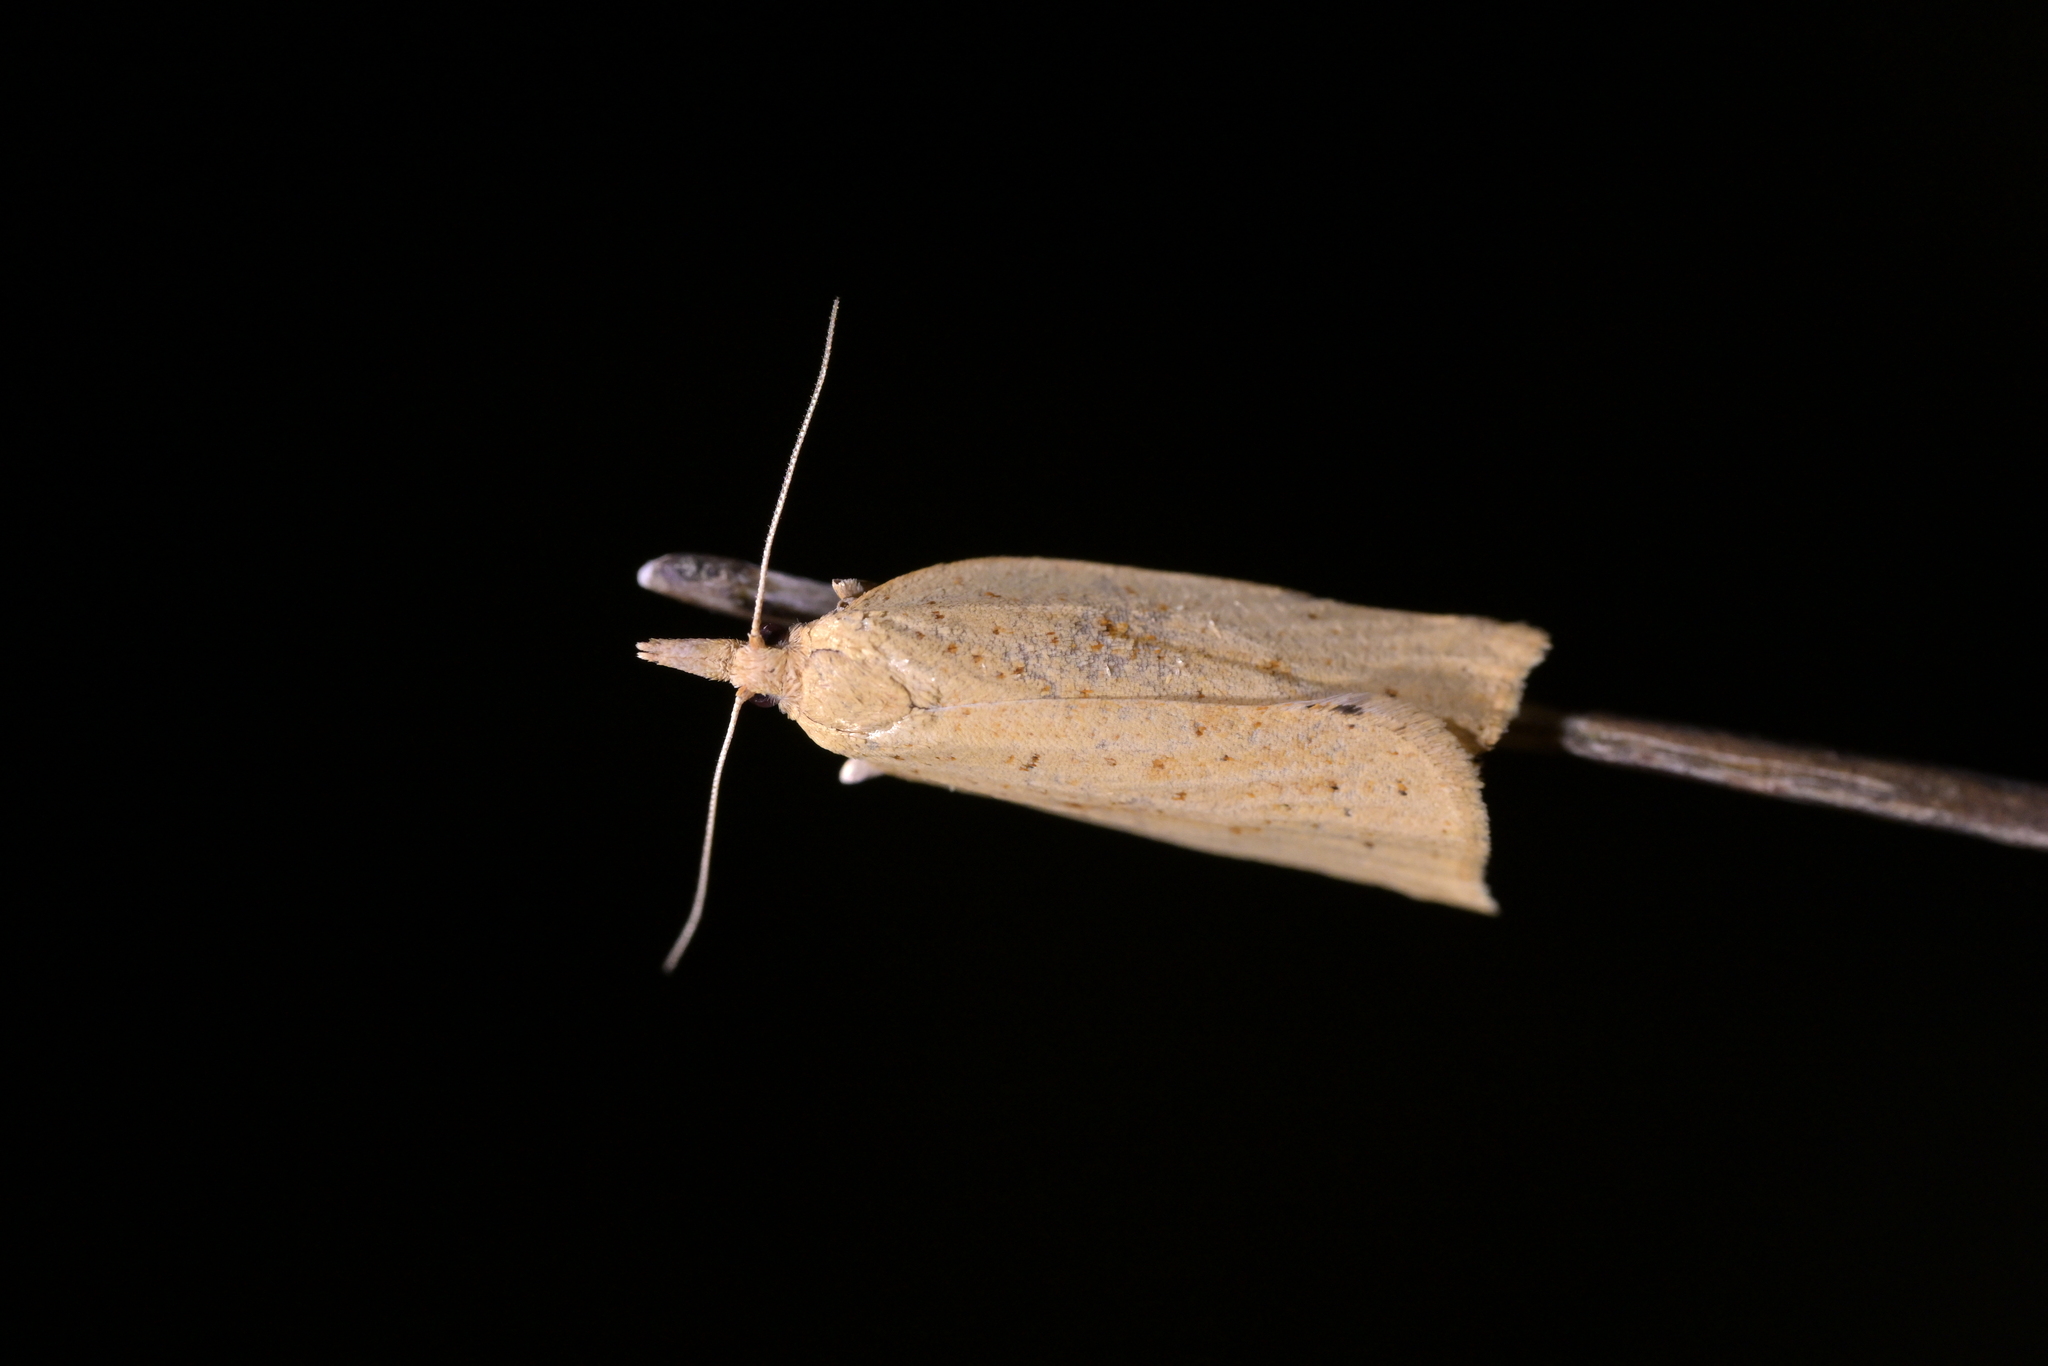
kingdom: Animalia
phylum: Arthropoda
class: Insecta
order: Lepidoptera
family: Tortricidae
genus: Apoctena
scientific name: Apoctena conditana
